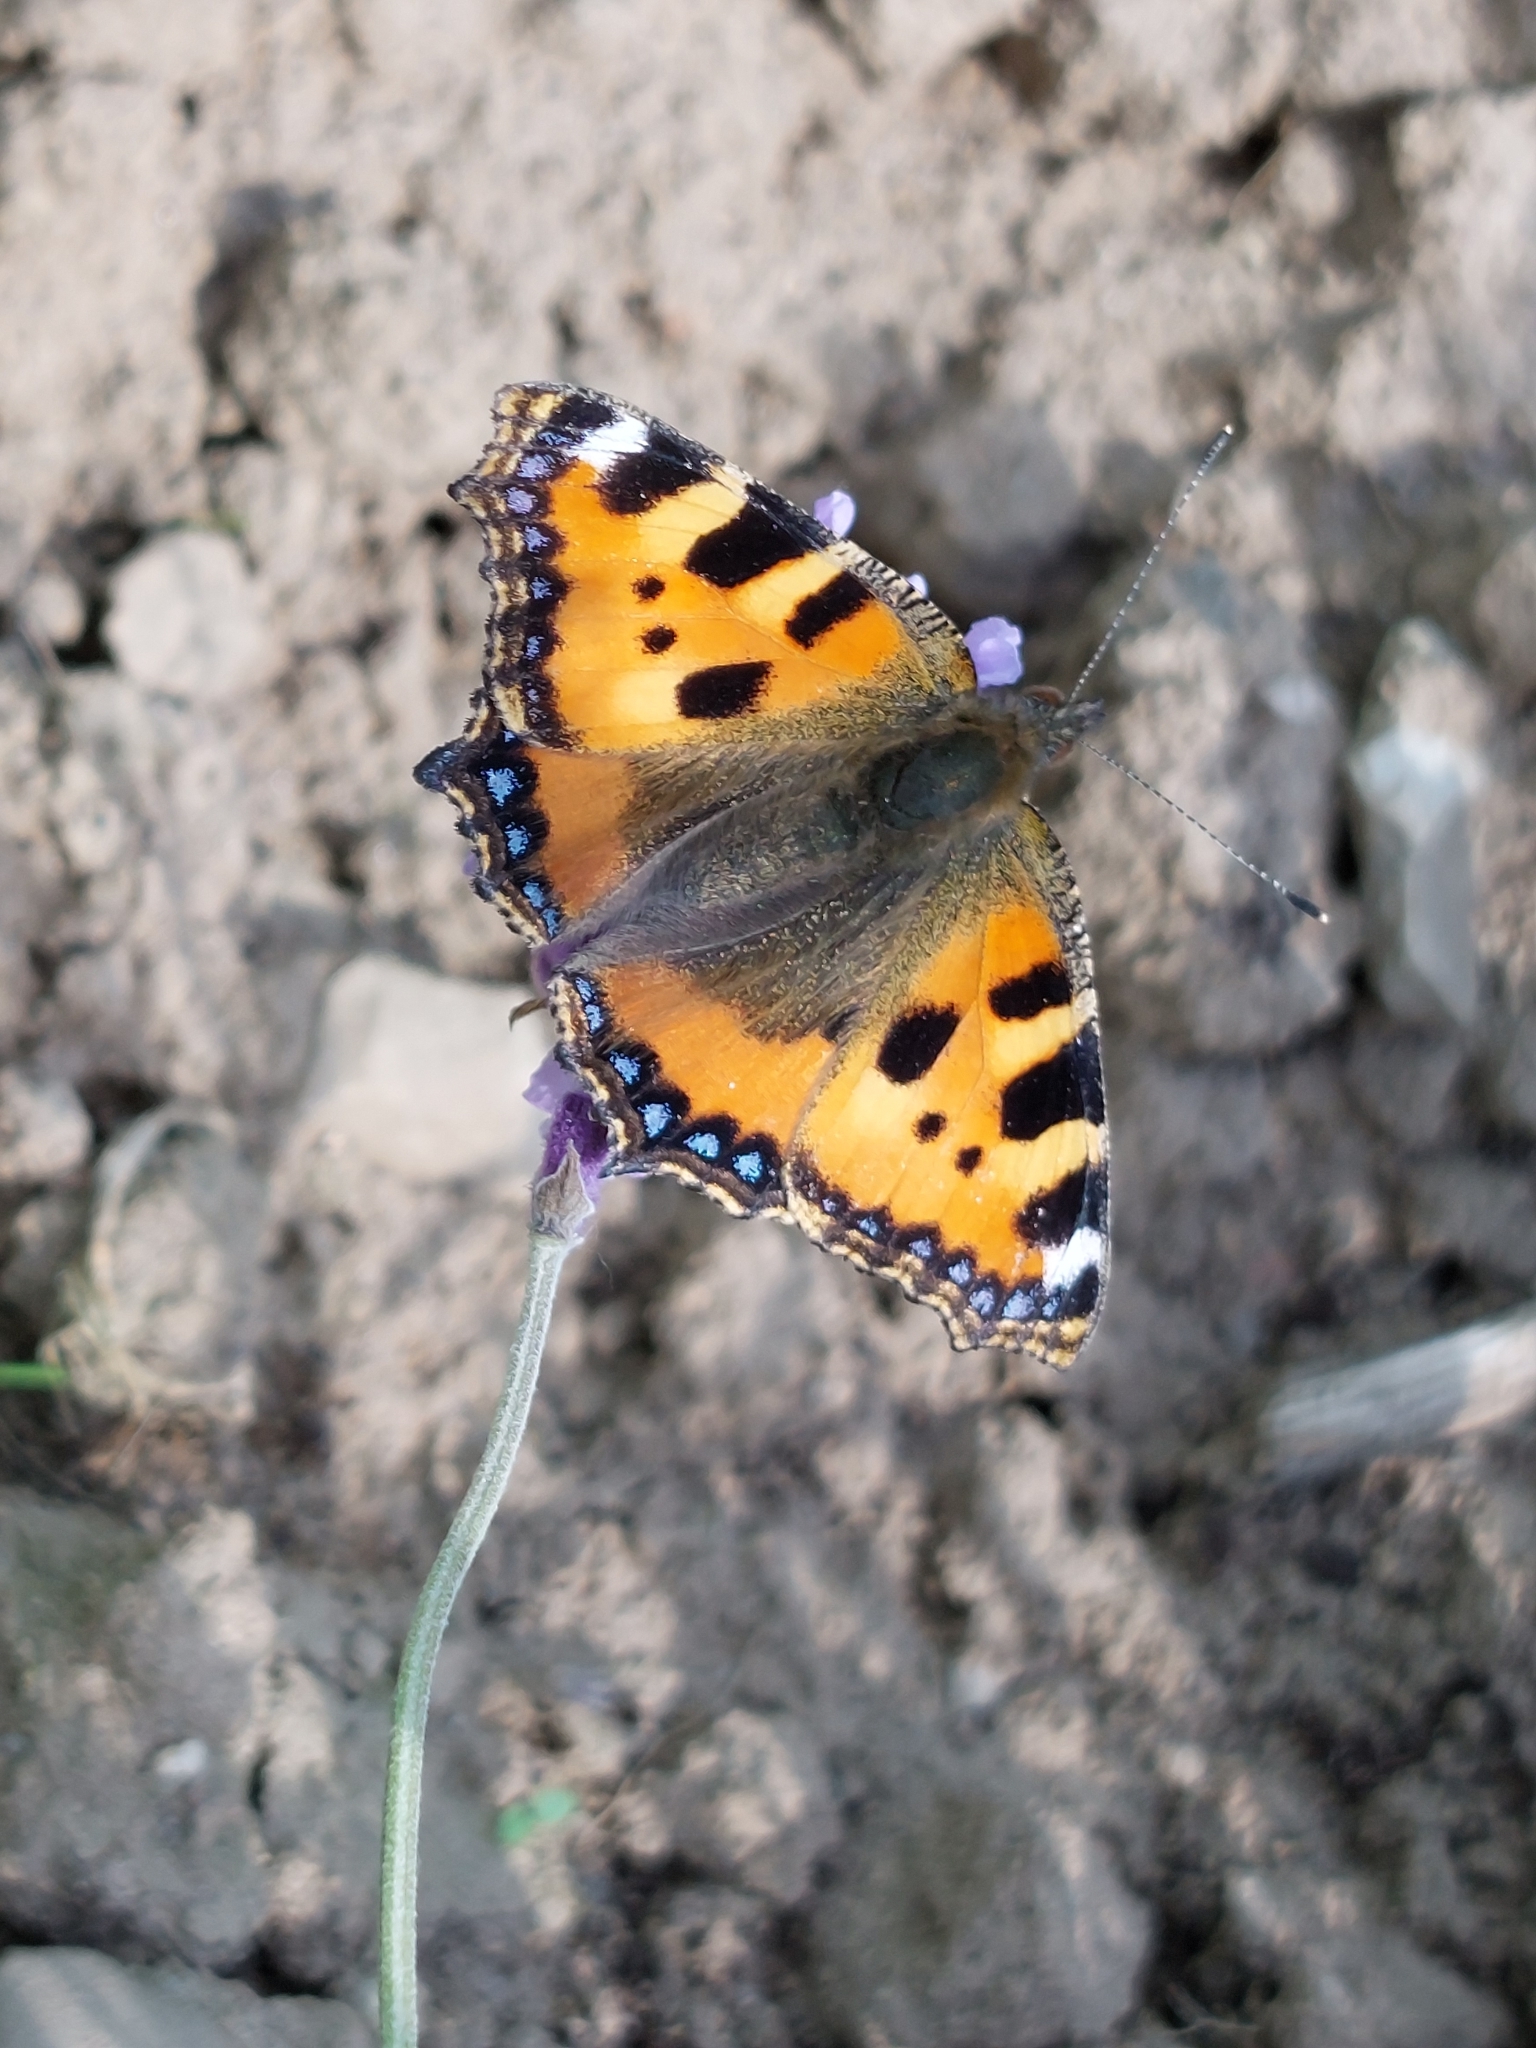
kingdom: Animalia
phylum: Arthropoda
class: Insecta
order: Lepidoptera
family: Nymphalidae
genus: Aglais
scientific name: Aglais urticae
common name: Small tortoiseshell
